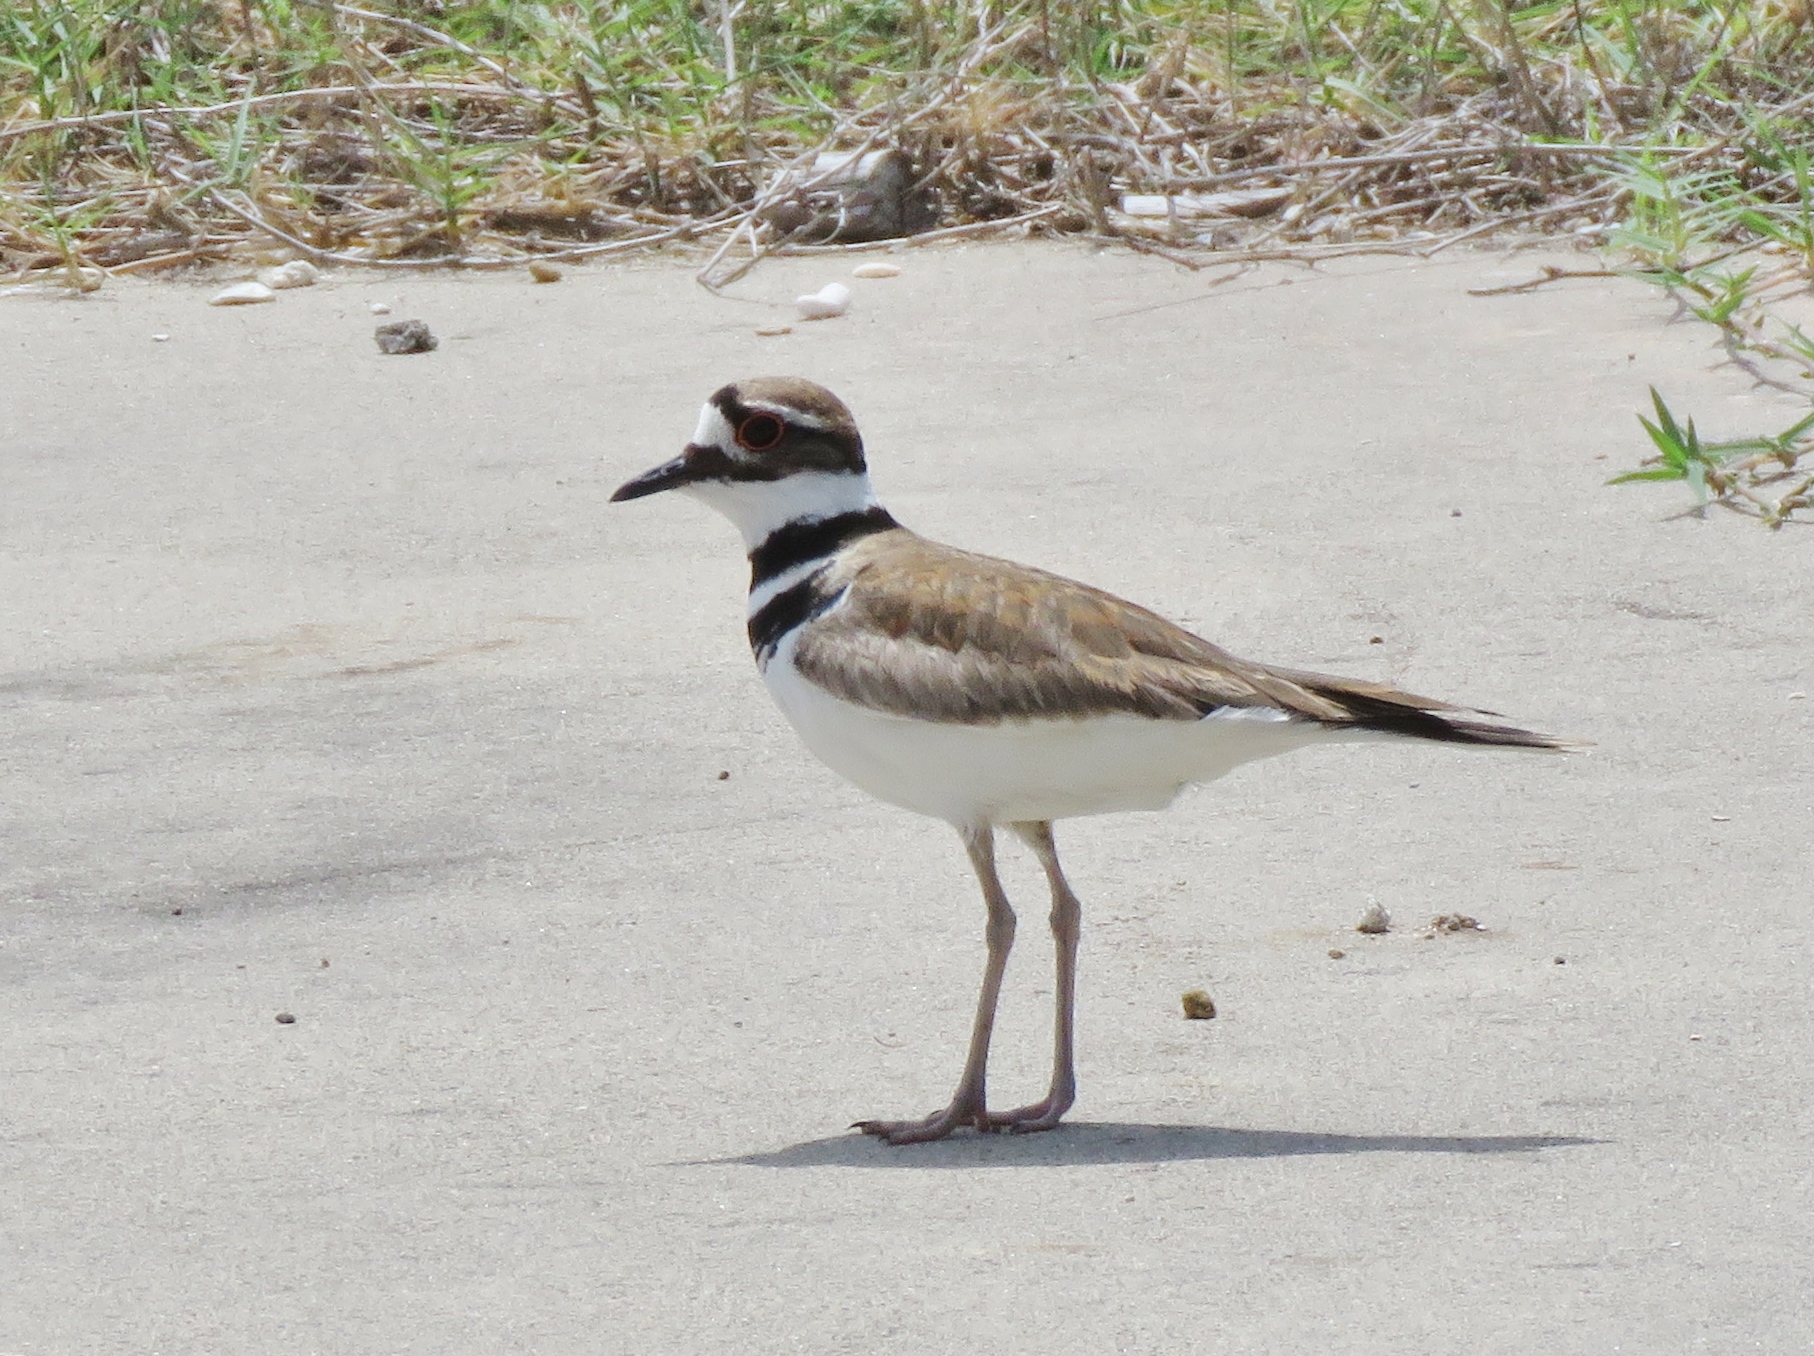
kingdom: Animalia
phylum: Chordata
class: Aves
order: Charadriiformes
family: Charadriidae
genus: Charadrius
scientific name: Charadrius vociferus
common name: Killdeer
